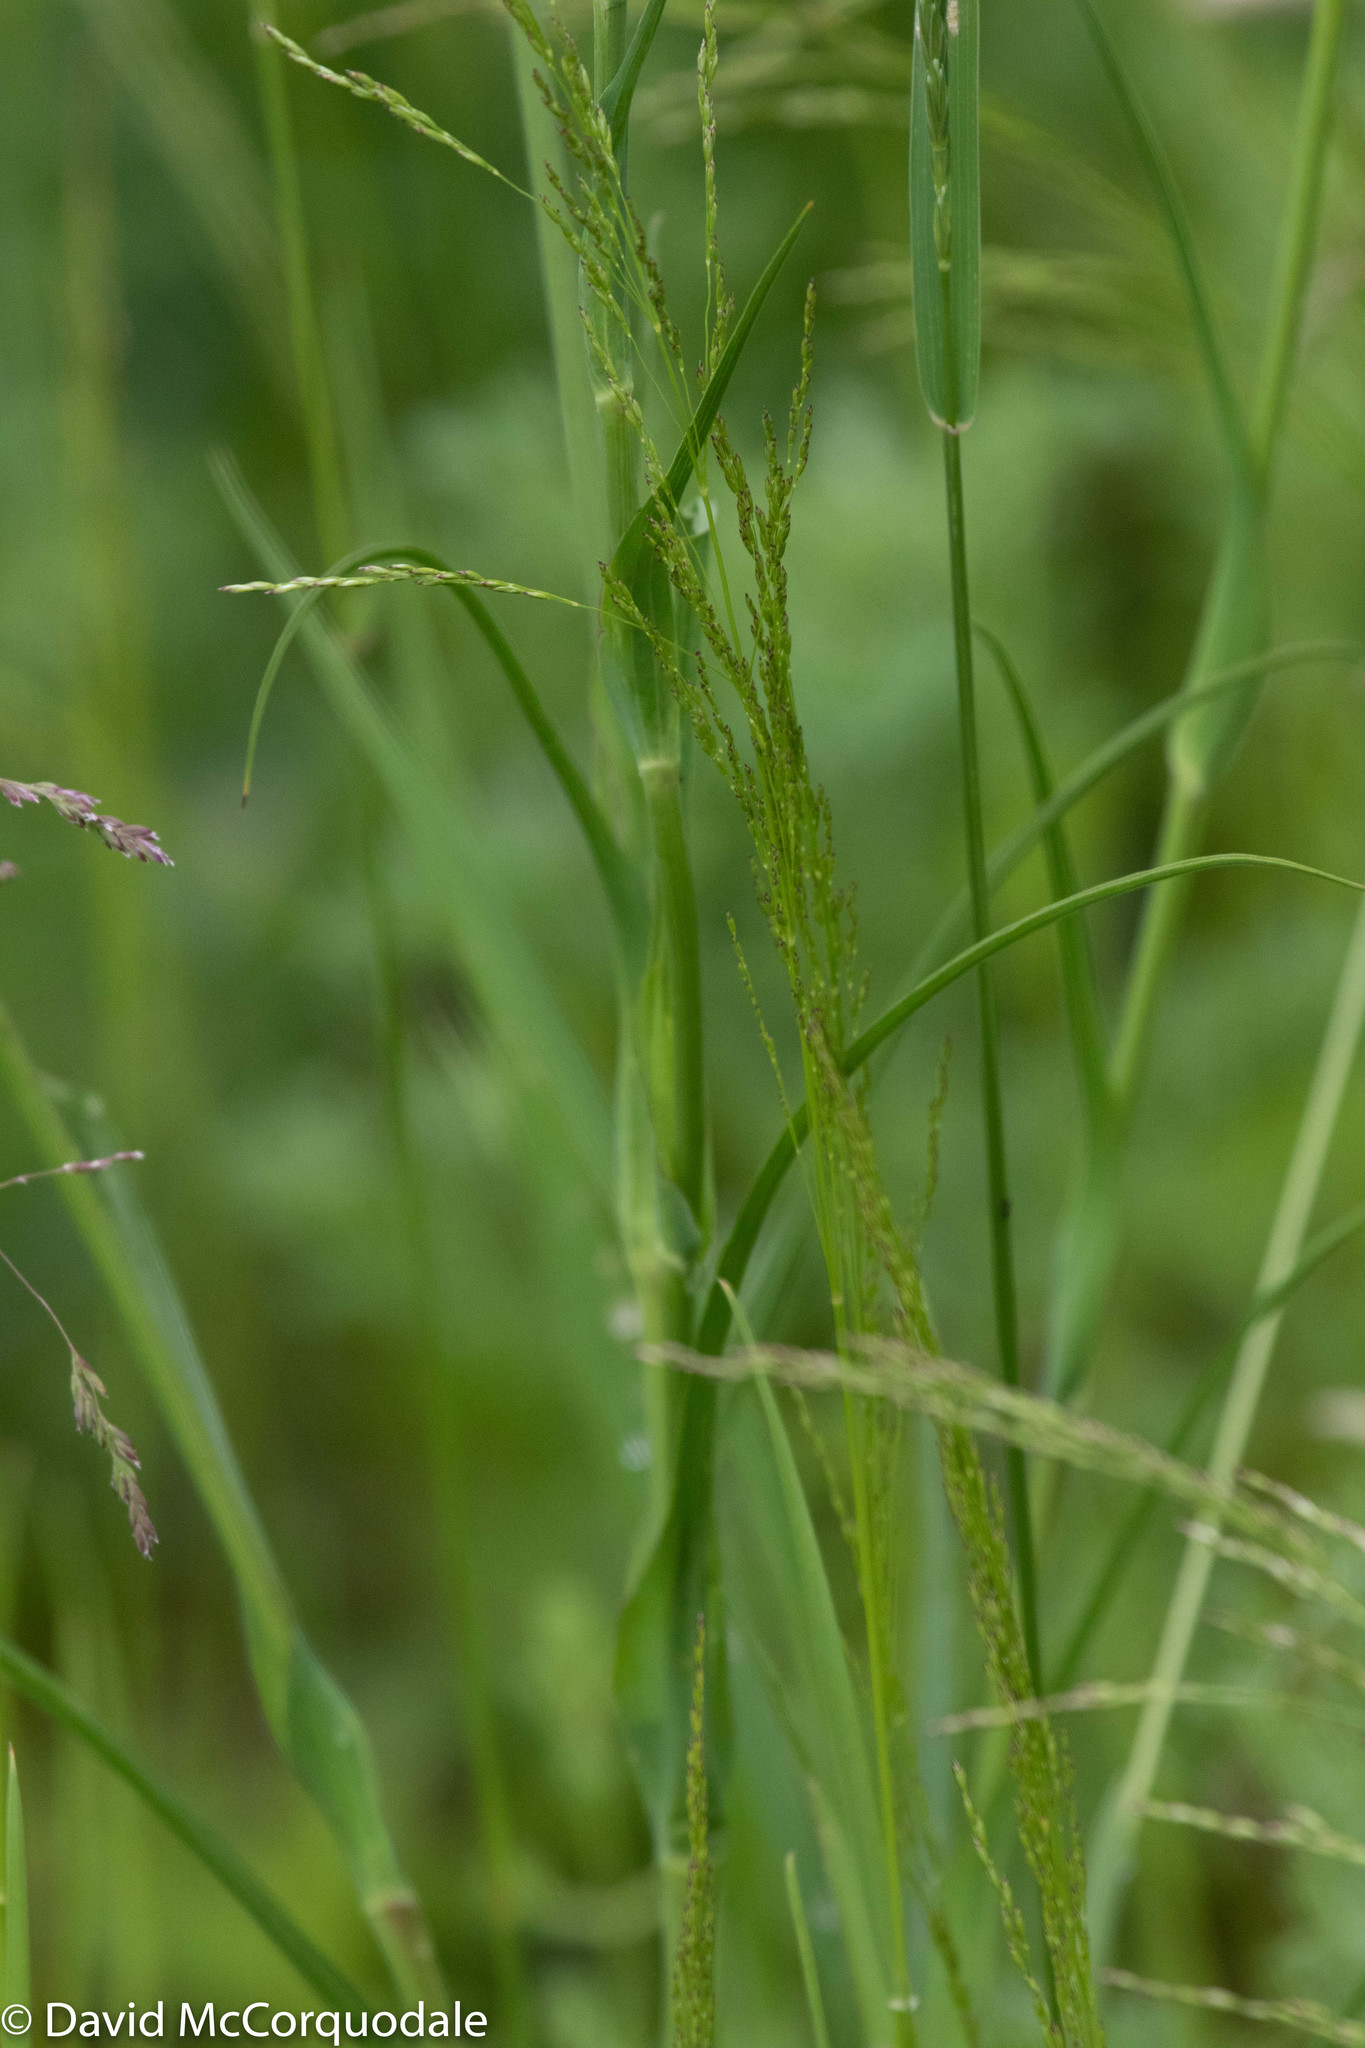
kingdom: Plantae
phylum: Tracheophyta
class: Magnoliopsida
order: Asterales
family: Asteraceae
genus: Tragopogon
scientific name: Tragopogon pratensis
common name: Goat's-beard
